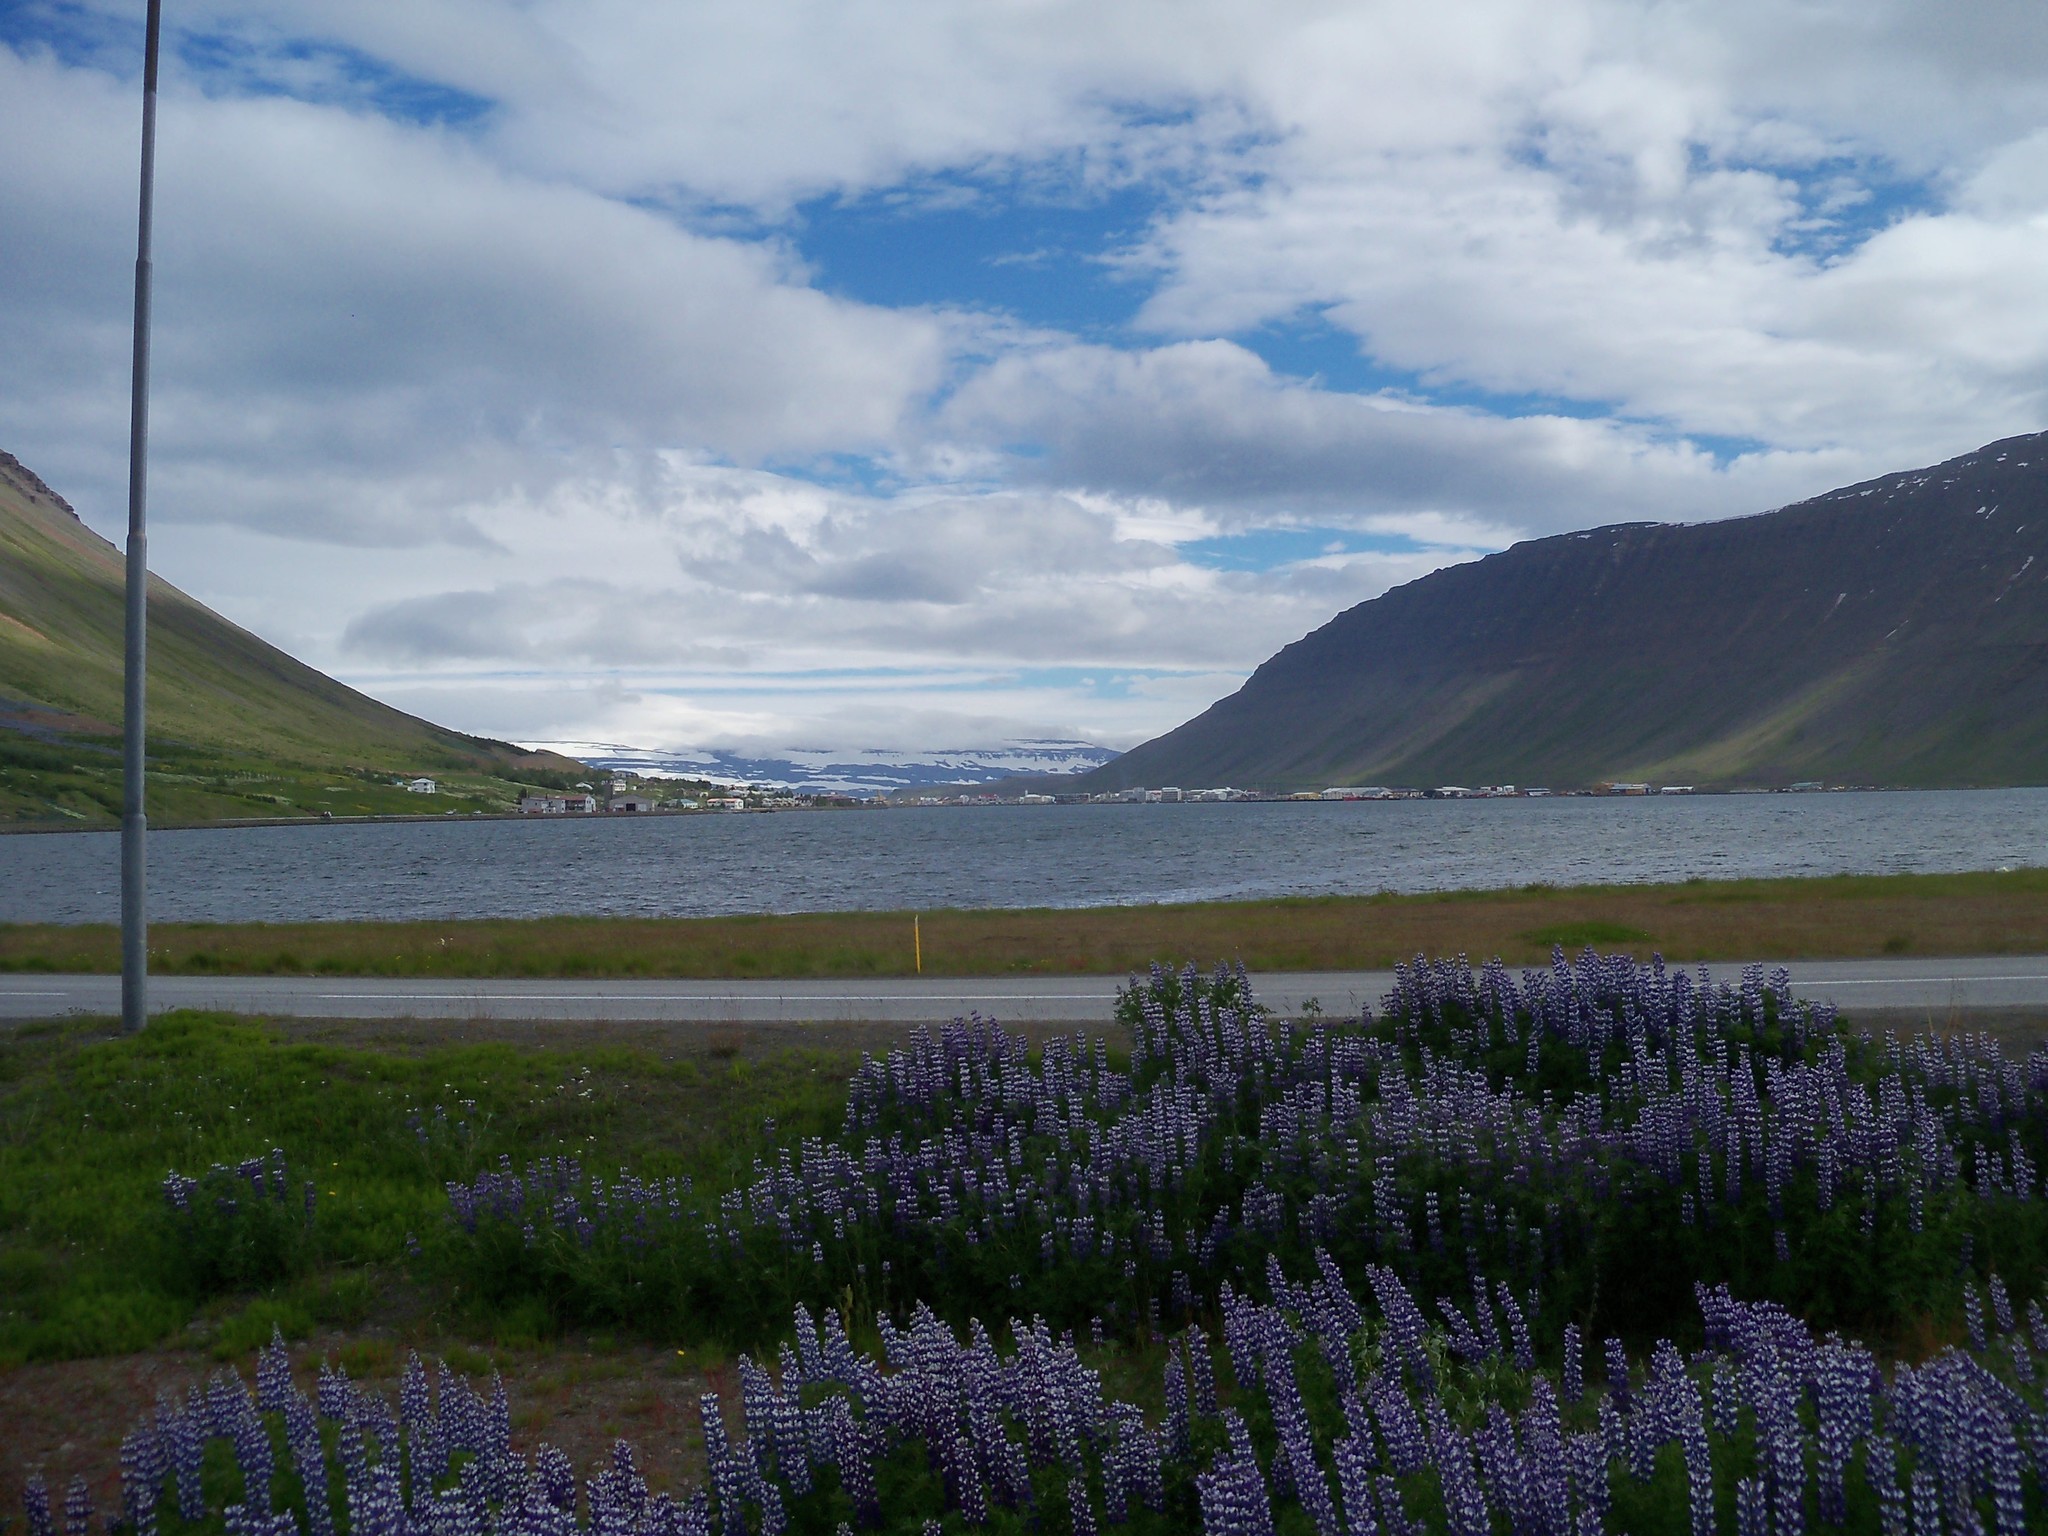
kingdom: Plantae
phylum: Tracheophyta
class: Magnoliopsida
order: Fabales
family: Fabaceae
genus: Lupinus
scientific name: Lupinus nootkatensis
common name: Nootka lupine
